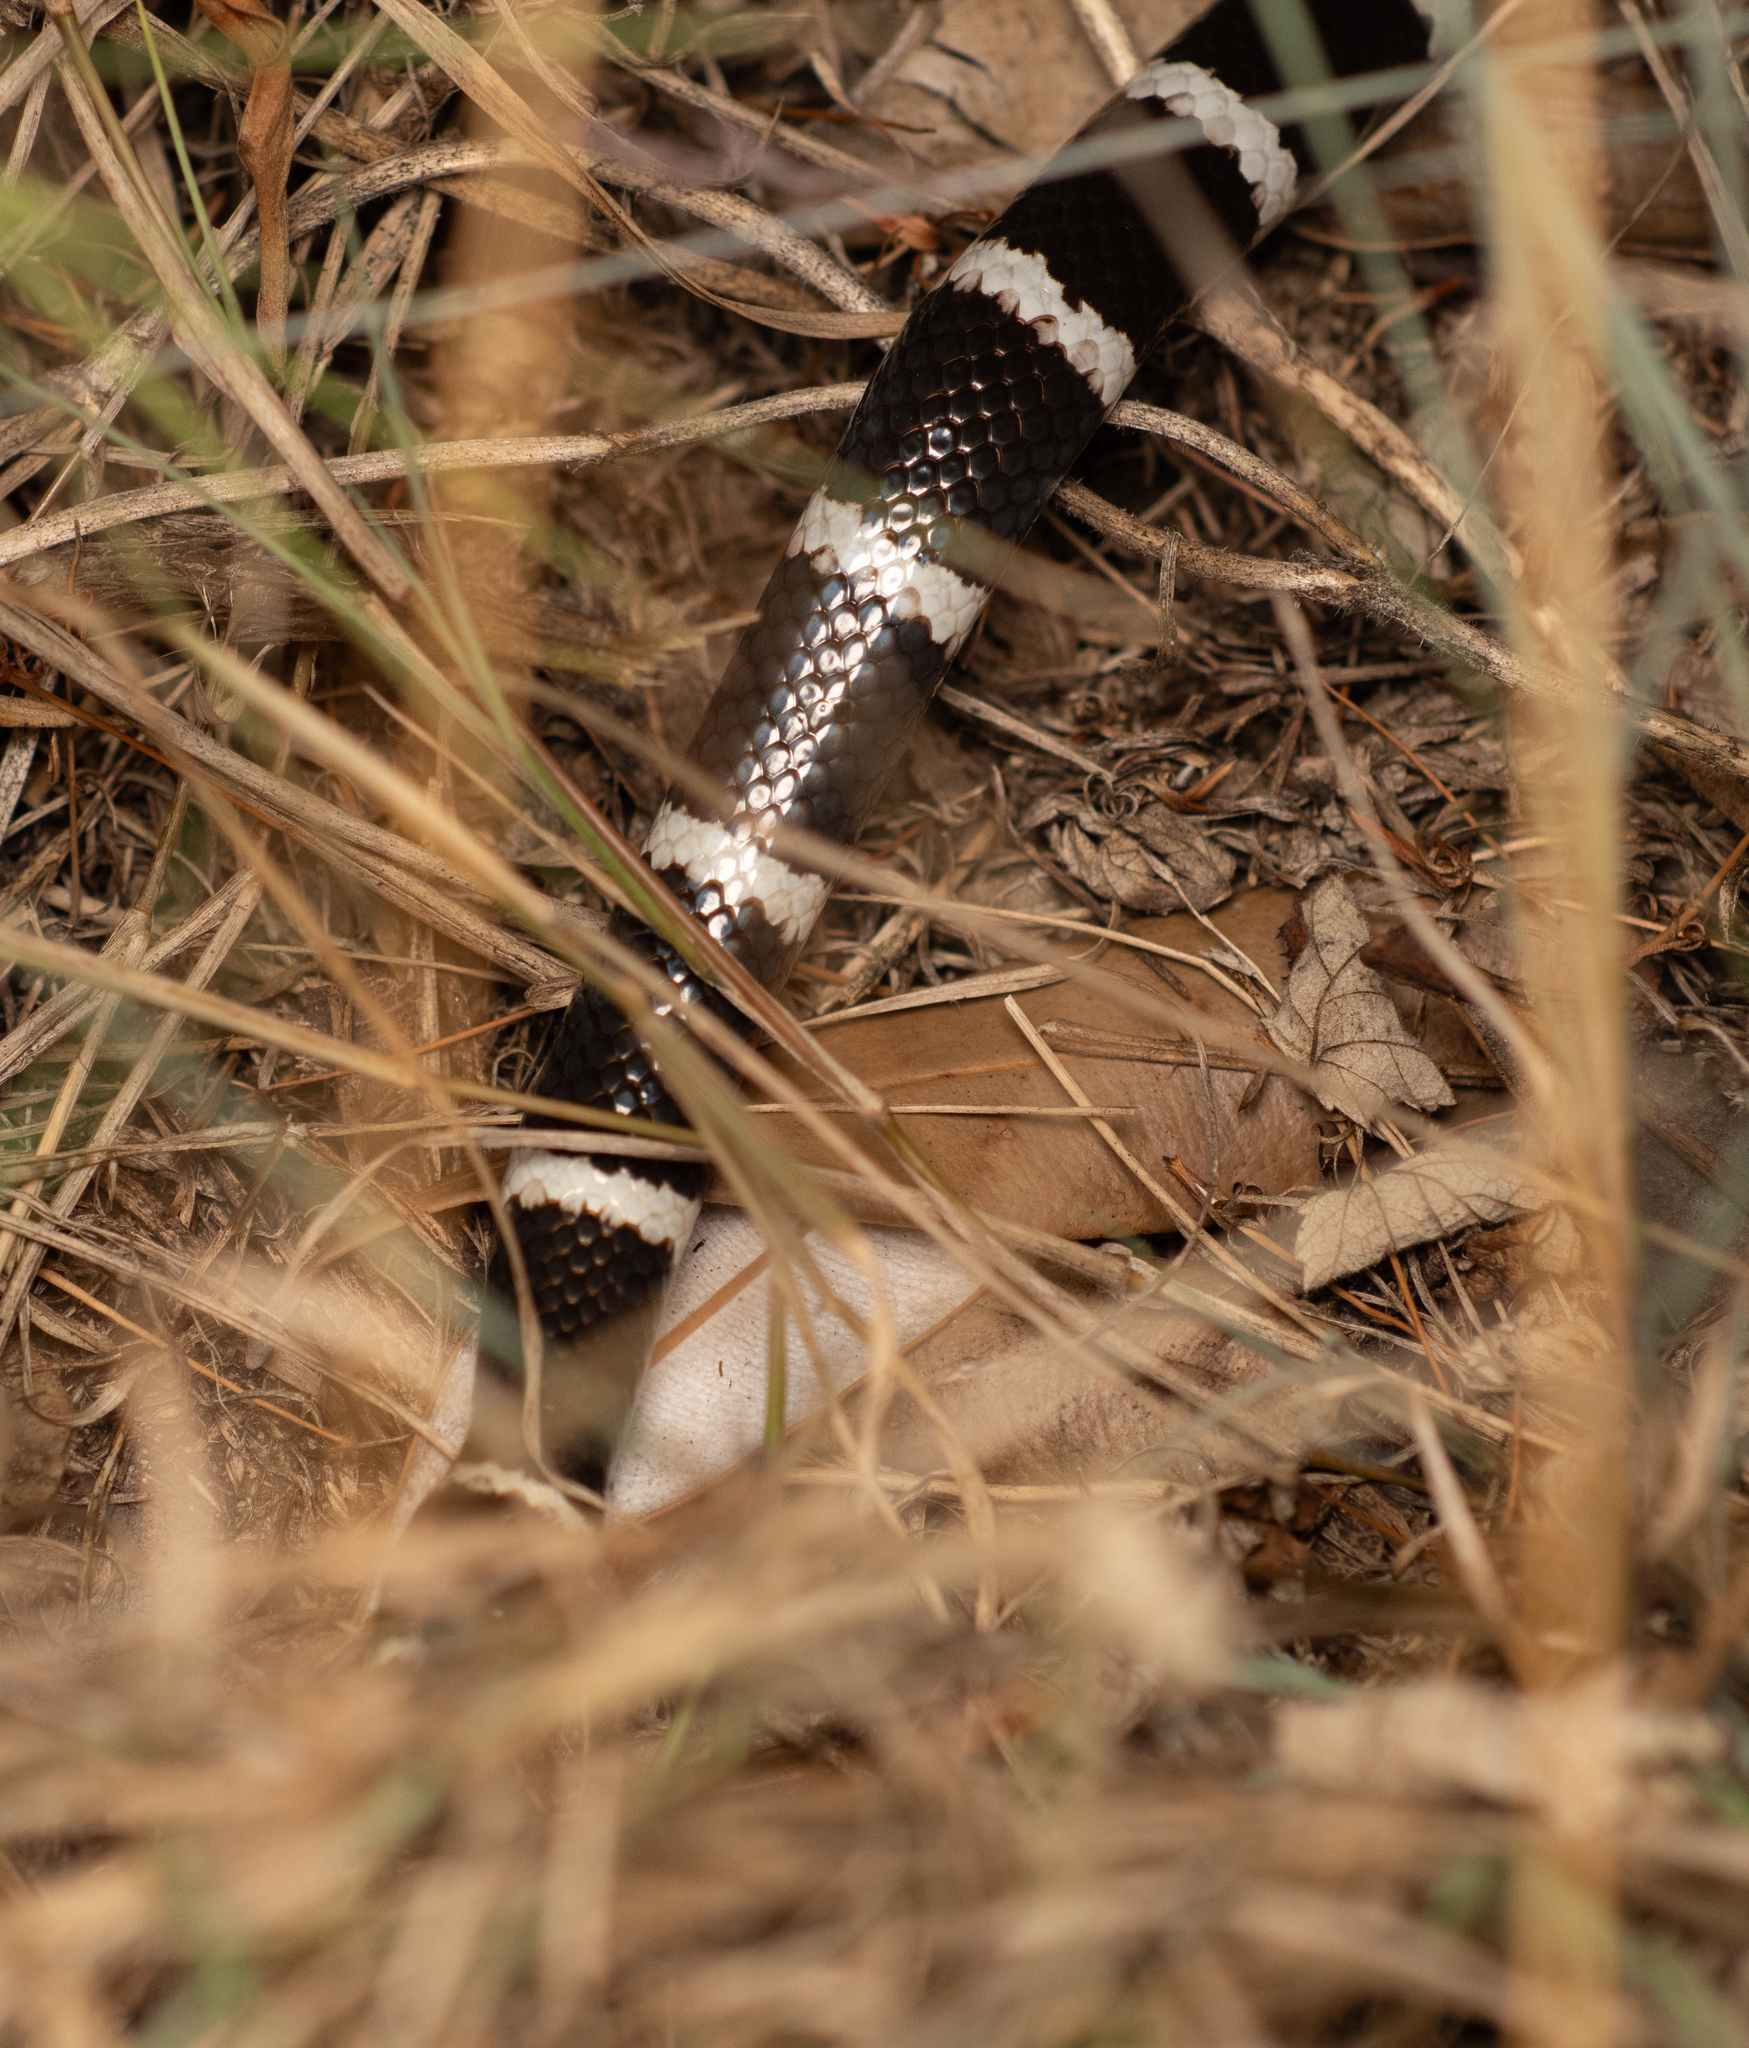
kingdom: Animalia
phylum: Chordata
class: Squamata
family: Elapidae
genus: Vermicella
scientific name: Vermicella annulata
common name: Bandy bandy
